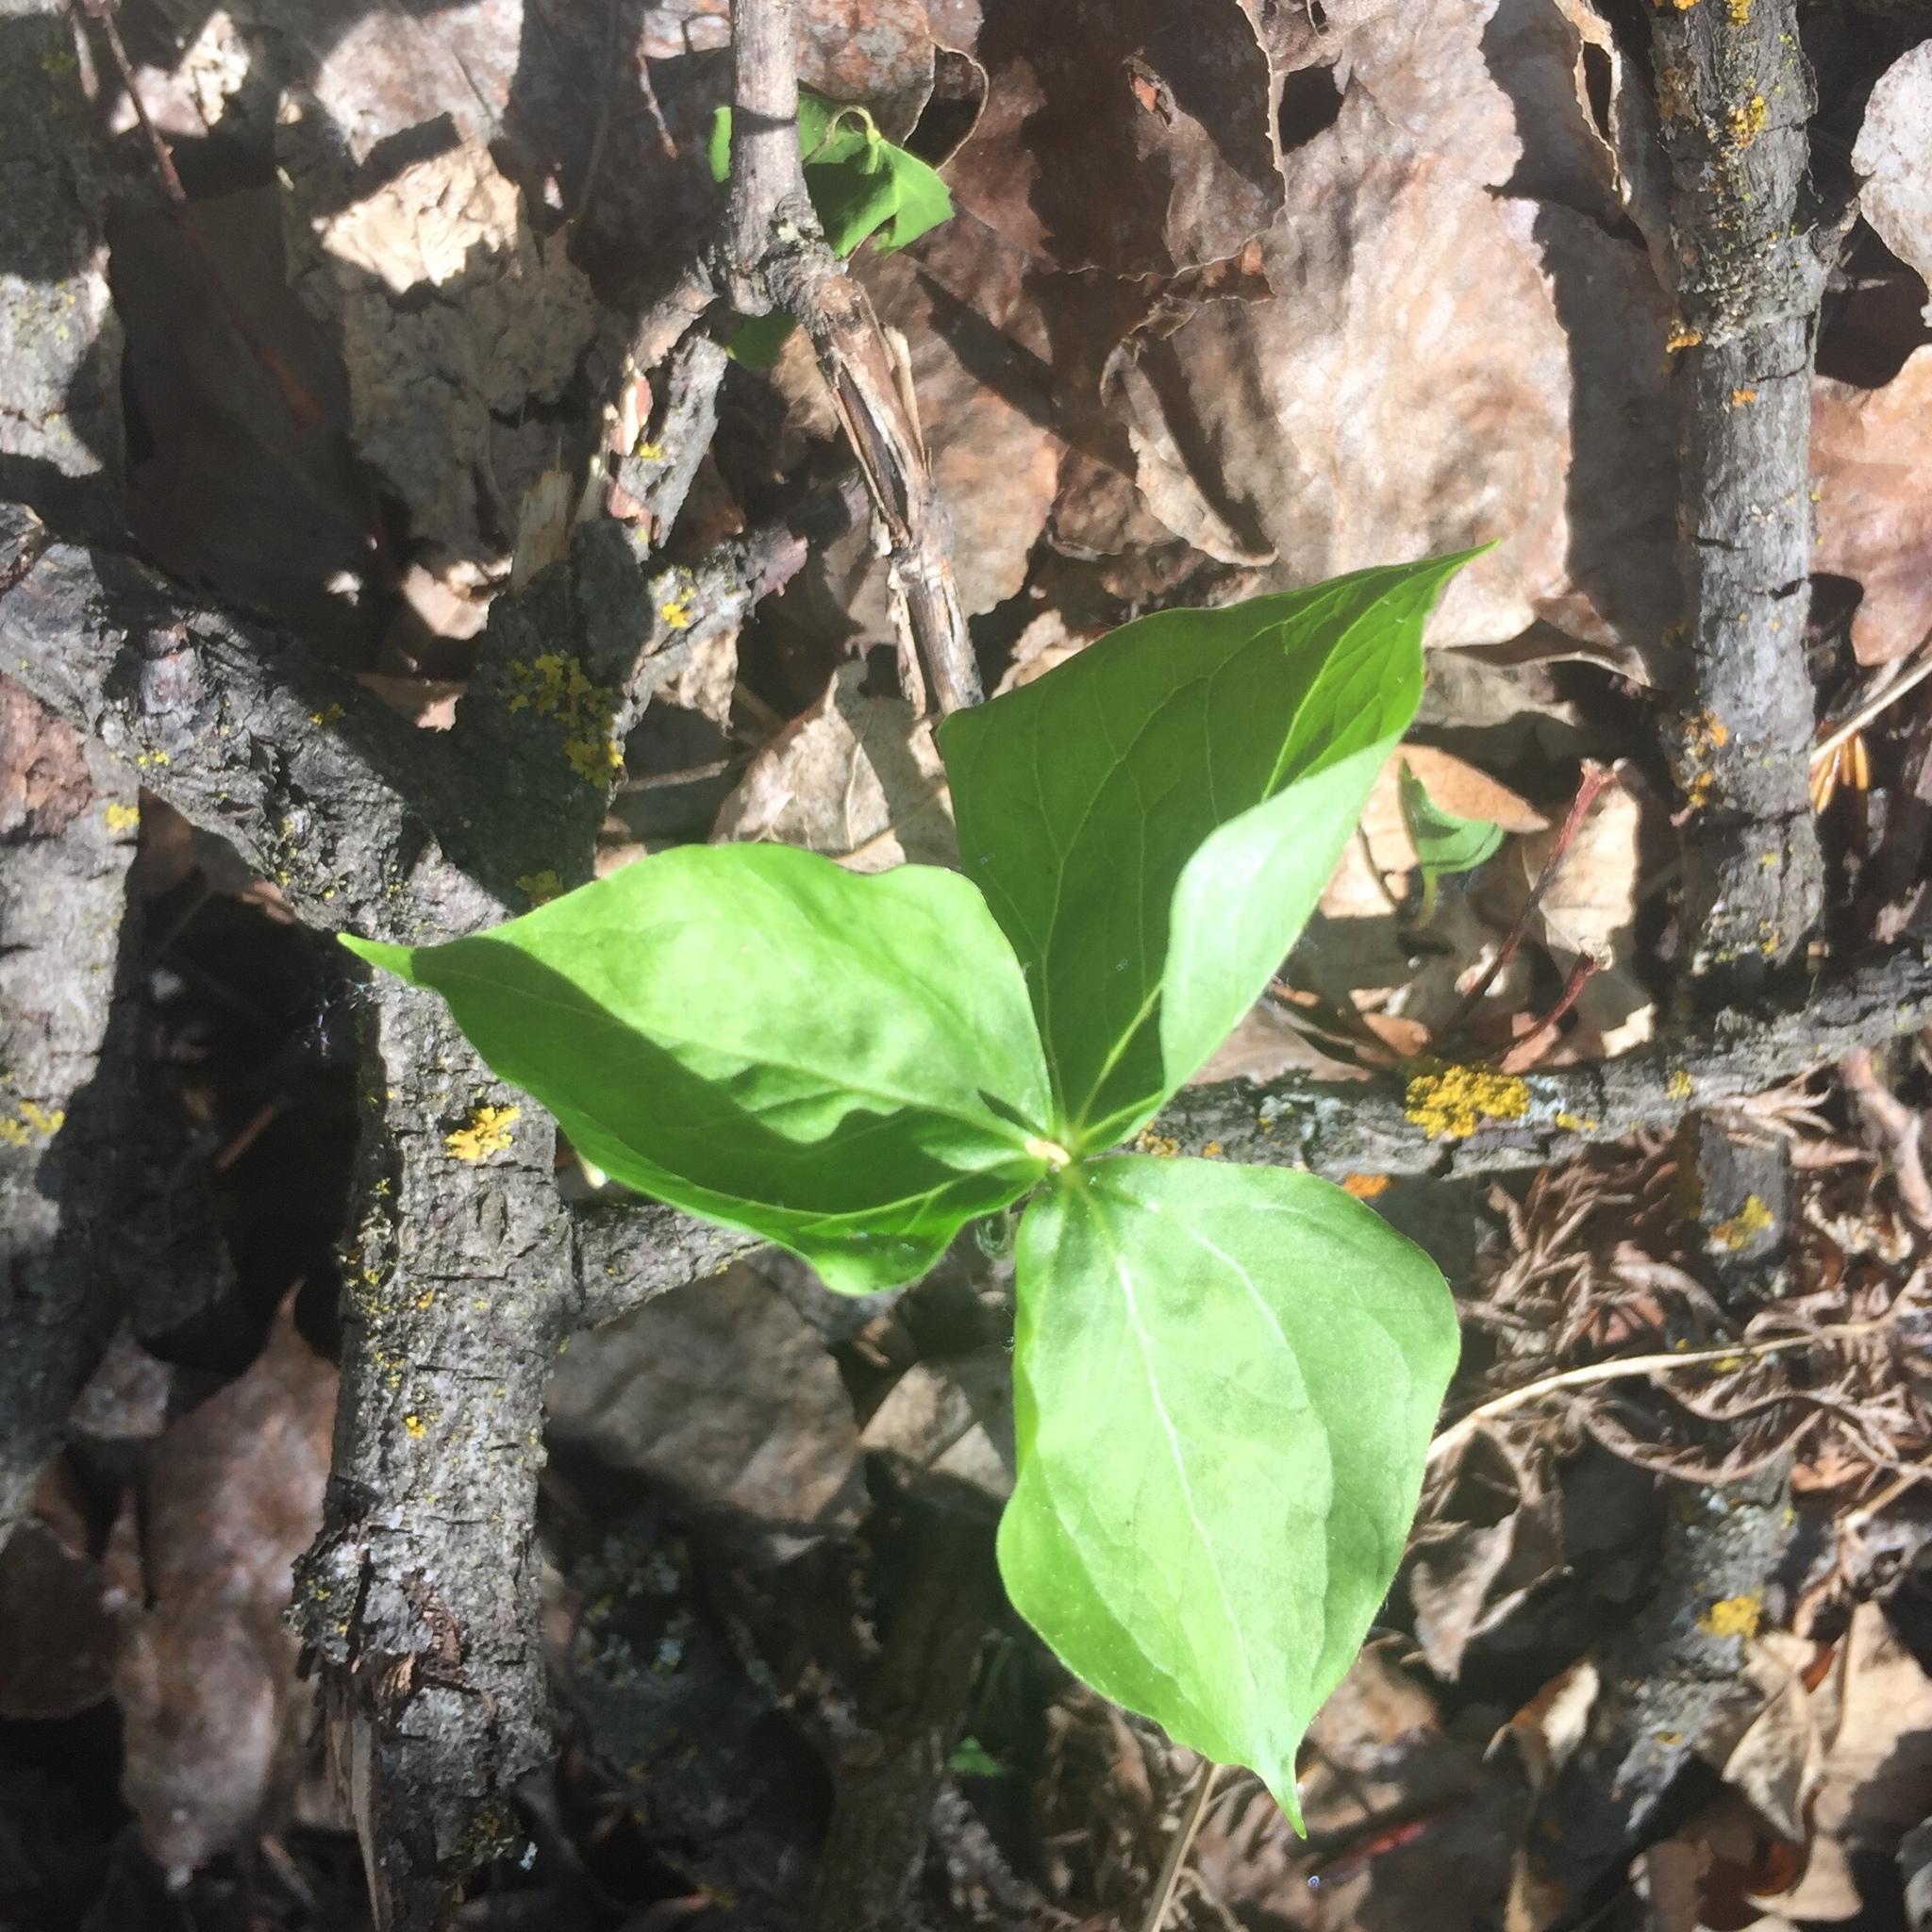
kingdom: Plantae
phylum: Tracheophyta
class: Liliopsida
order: Liliales
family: Melanthiaceae
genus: Trillium
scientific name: Trillium cernuum
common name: Nodding trillium
